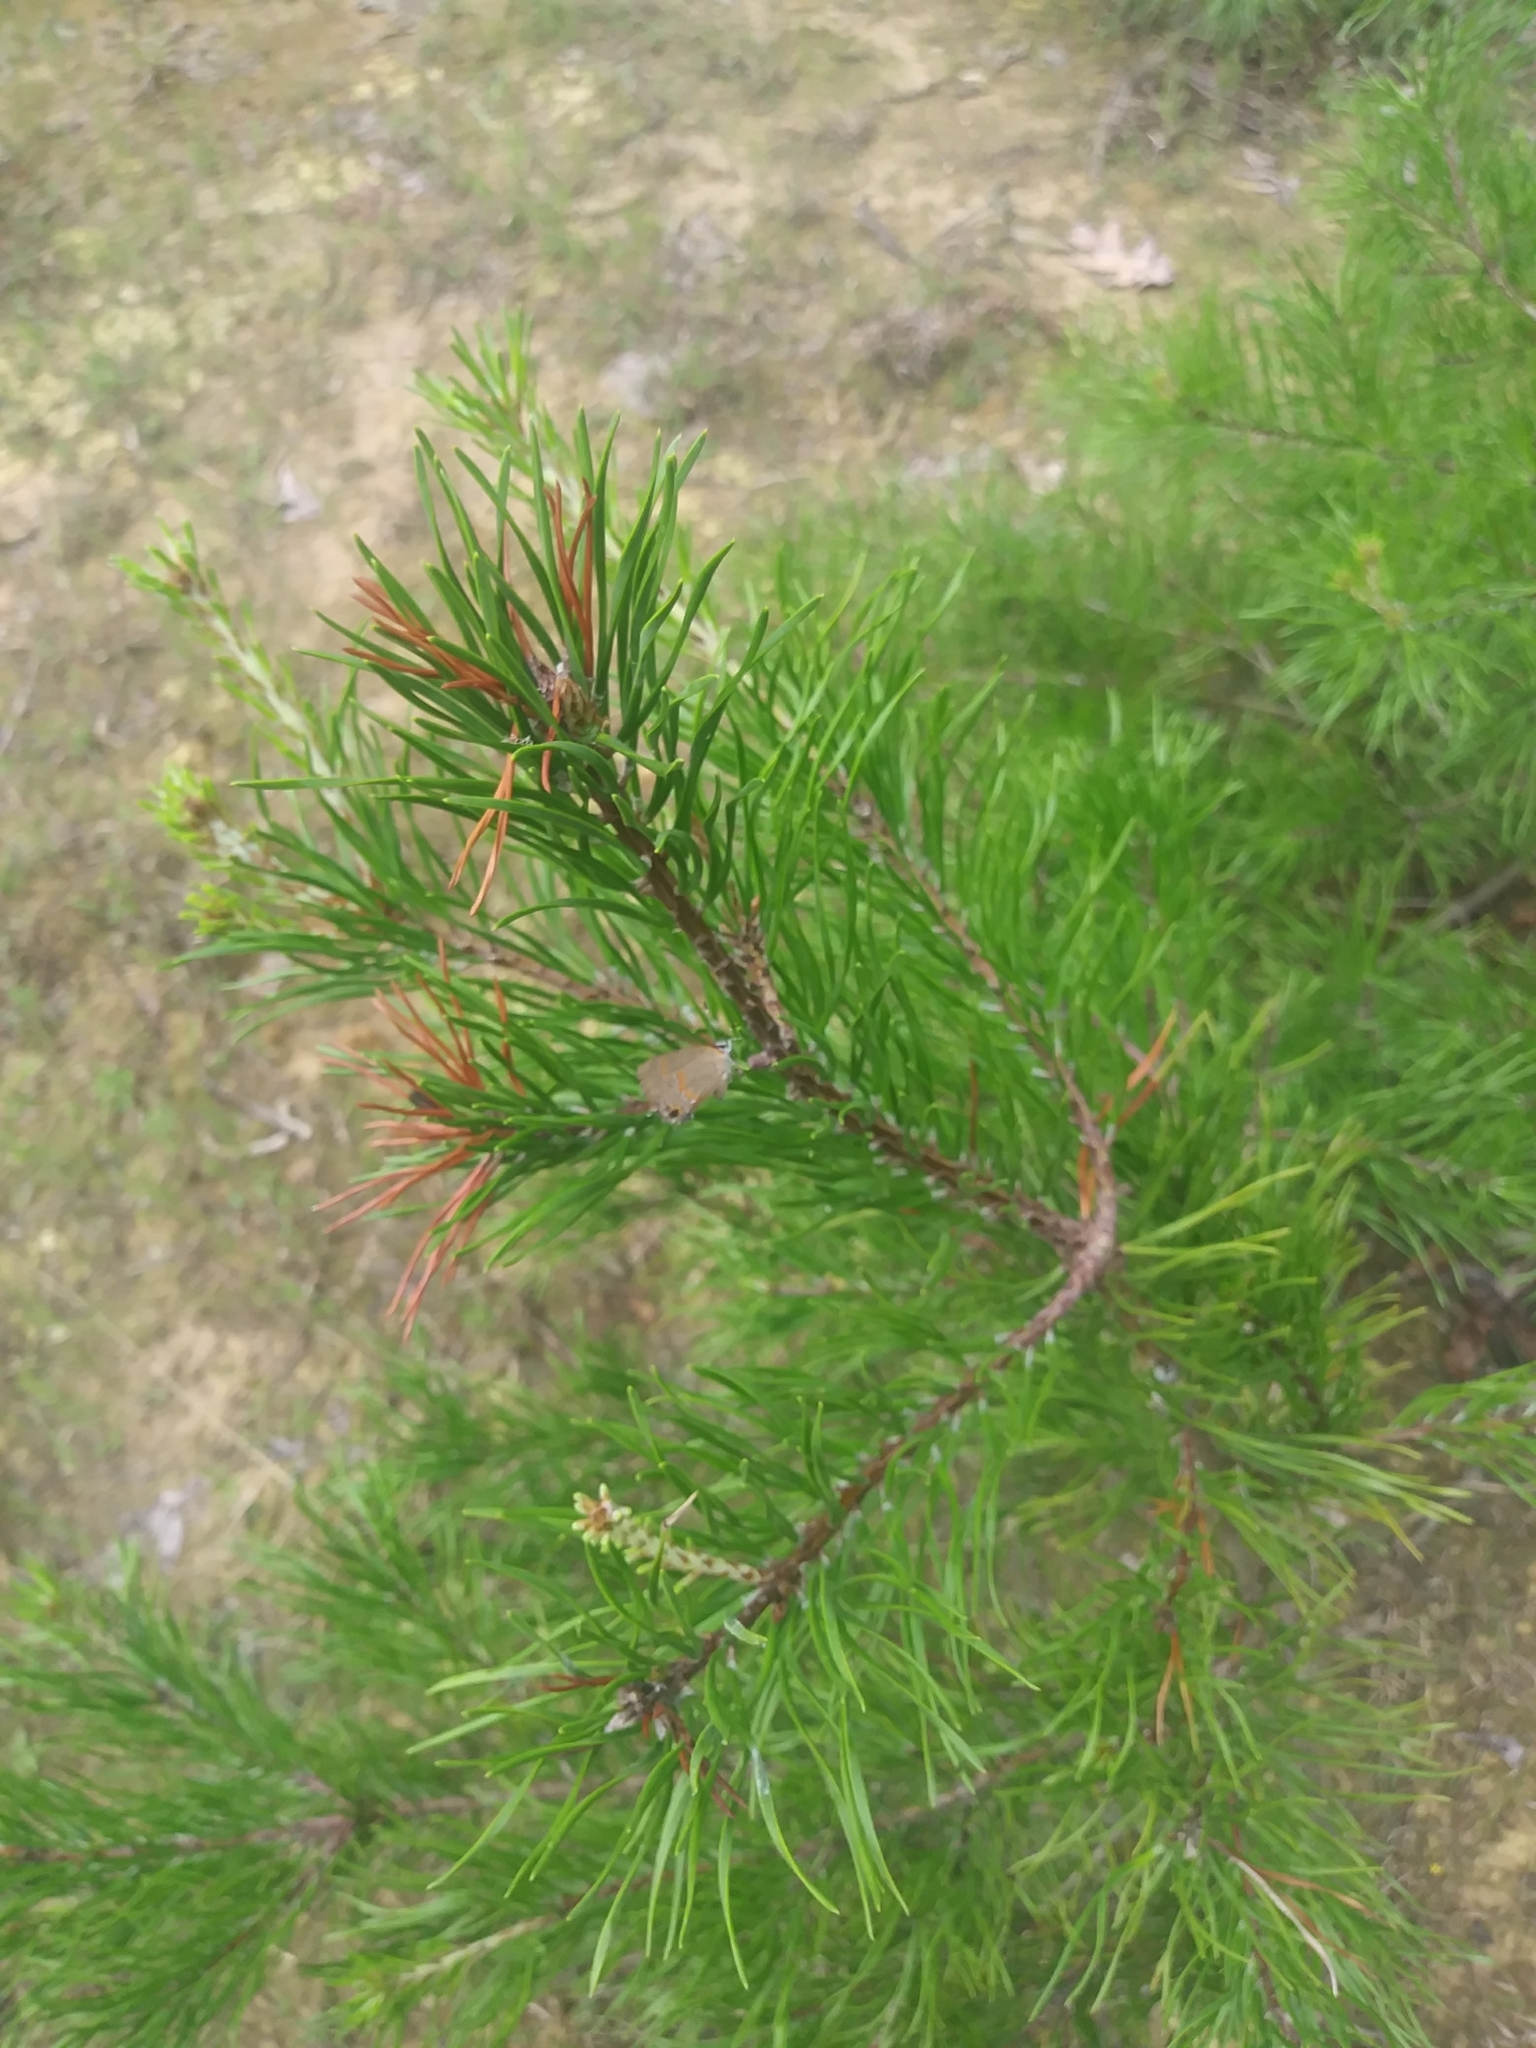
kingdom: Animalia
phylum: Arthropoda
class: Insecta
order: Lepidoptera
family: Lycaenidae
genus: Calycopis
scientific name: Calycopis cecrops
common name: Red-banded hairstreak
